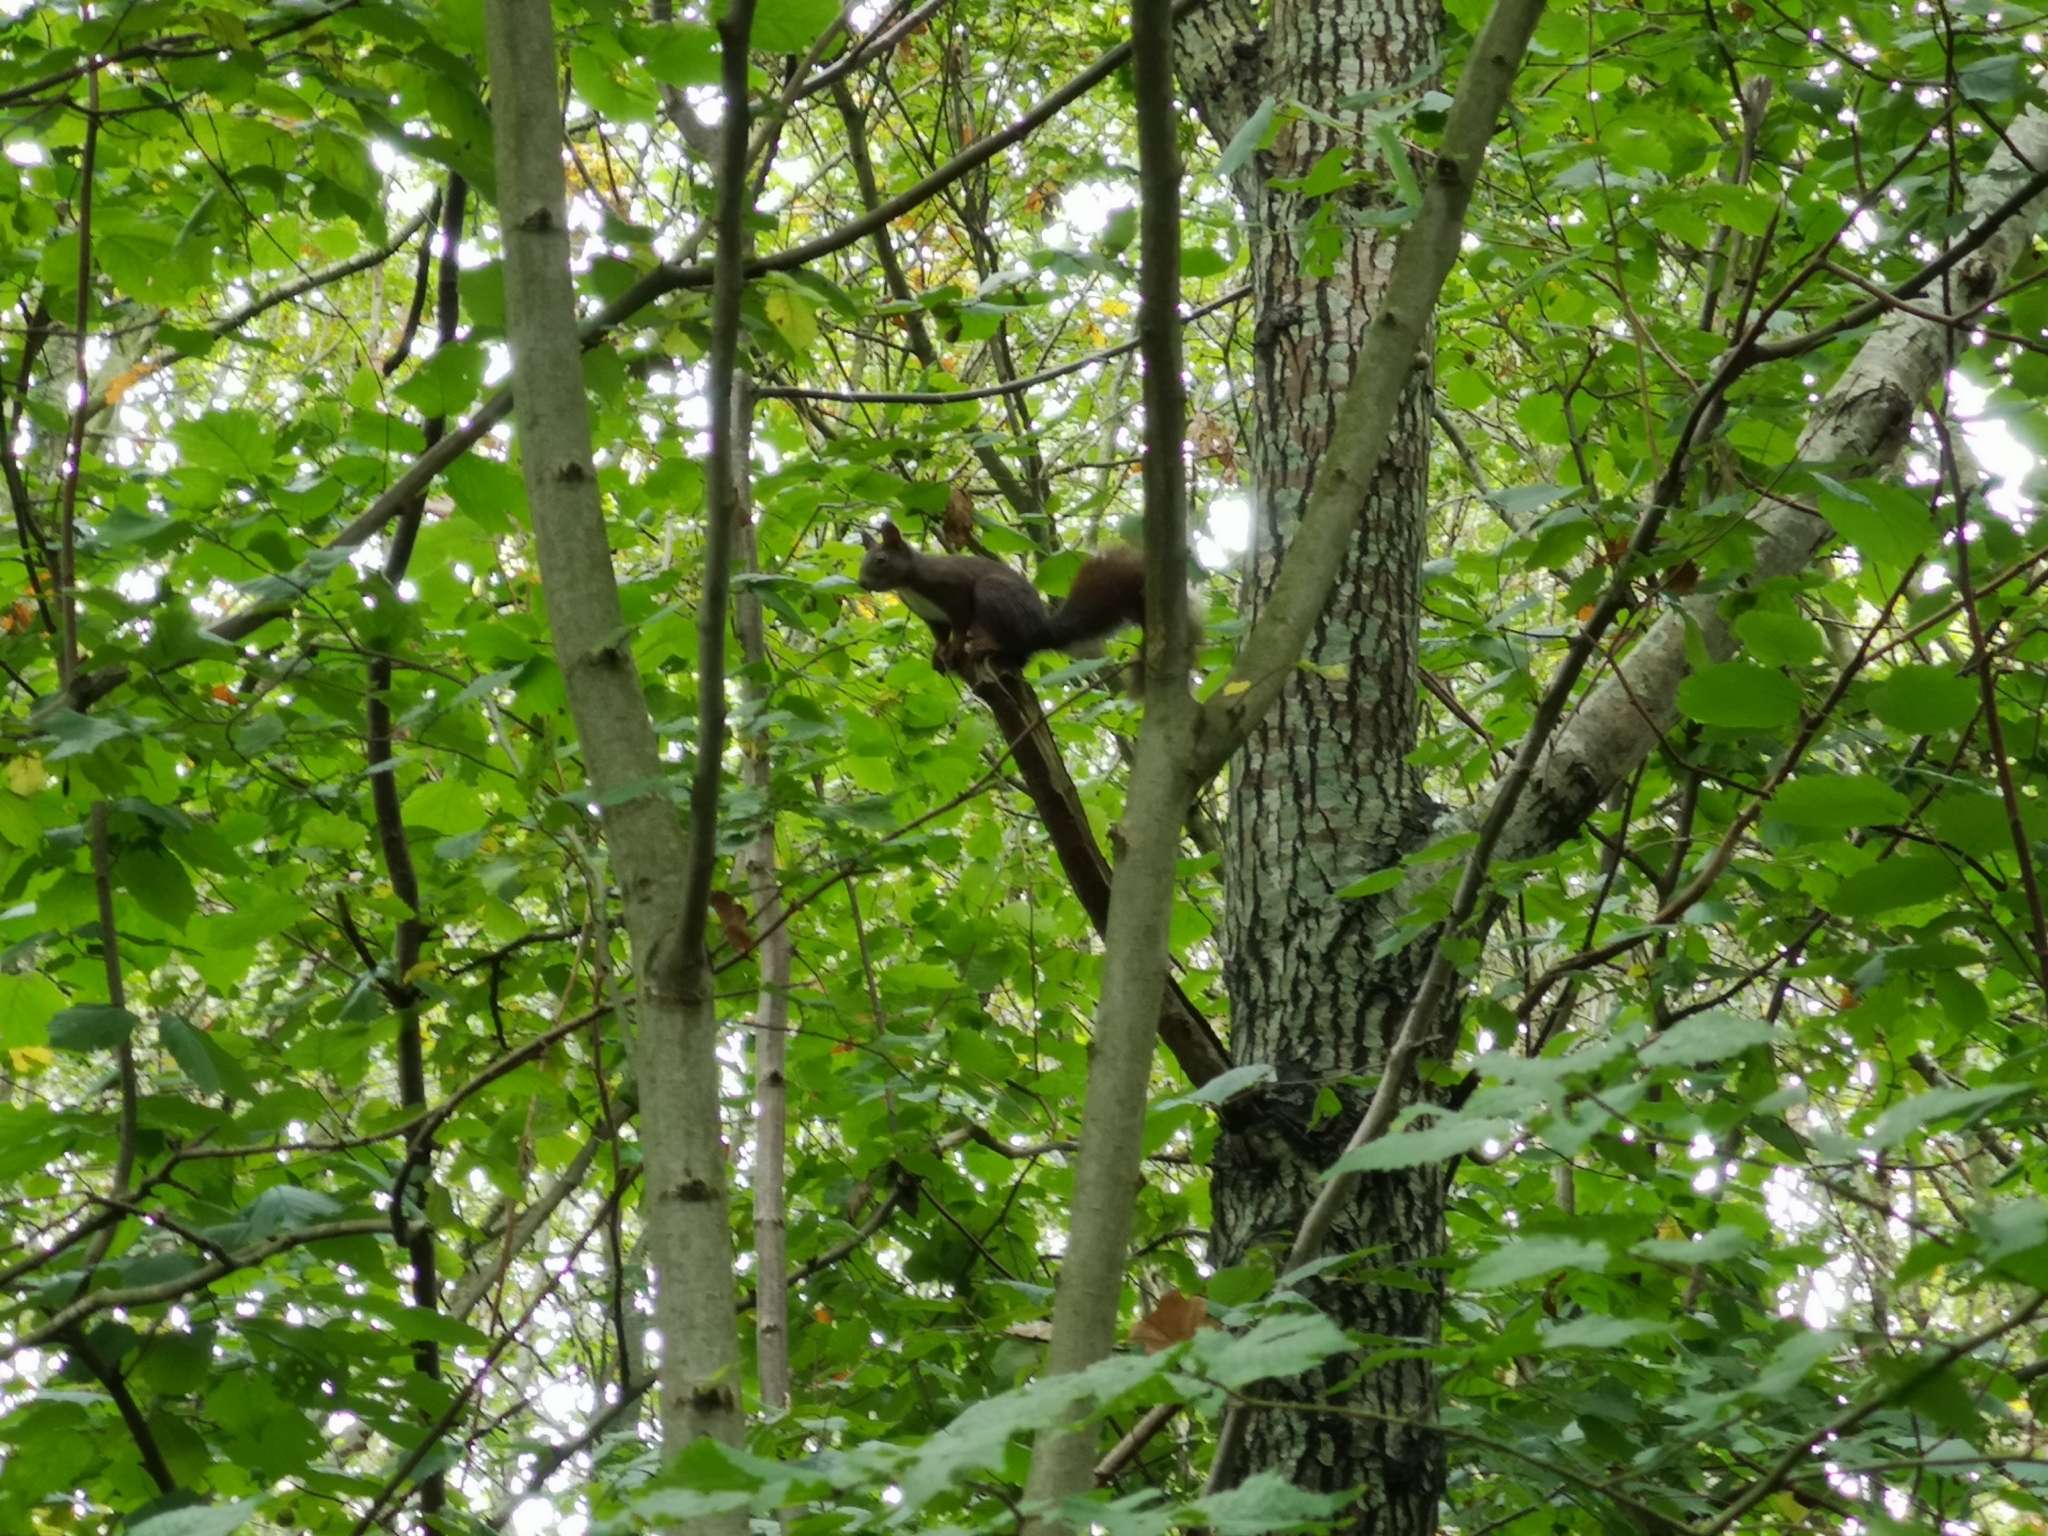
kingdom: Animalia
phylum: Chordata
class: Mammalia
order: Rodentia
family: Sciuridae
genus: Sciurus
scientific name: Sciurus vulgaris
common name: Eurasian red squirrel
